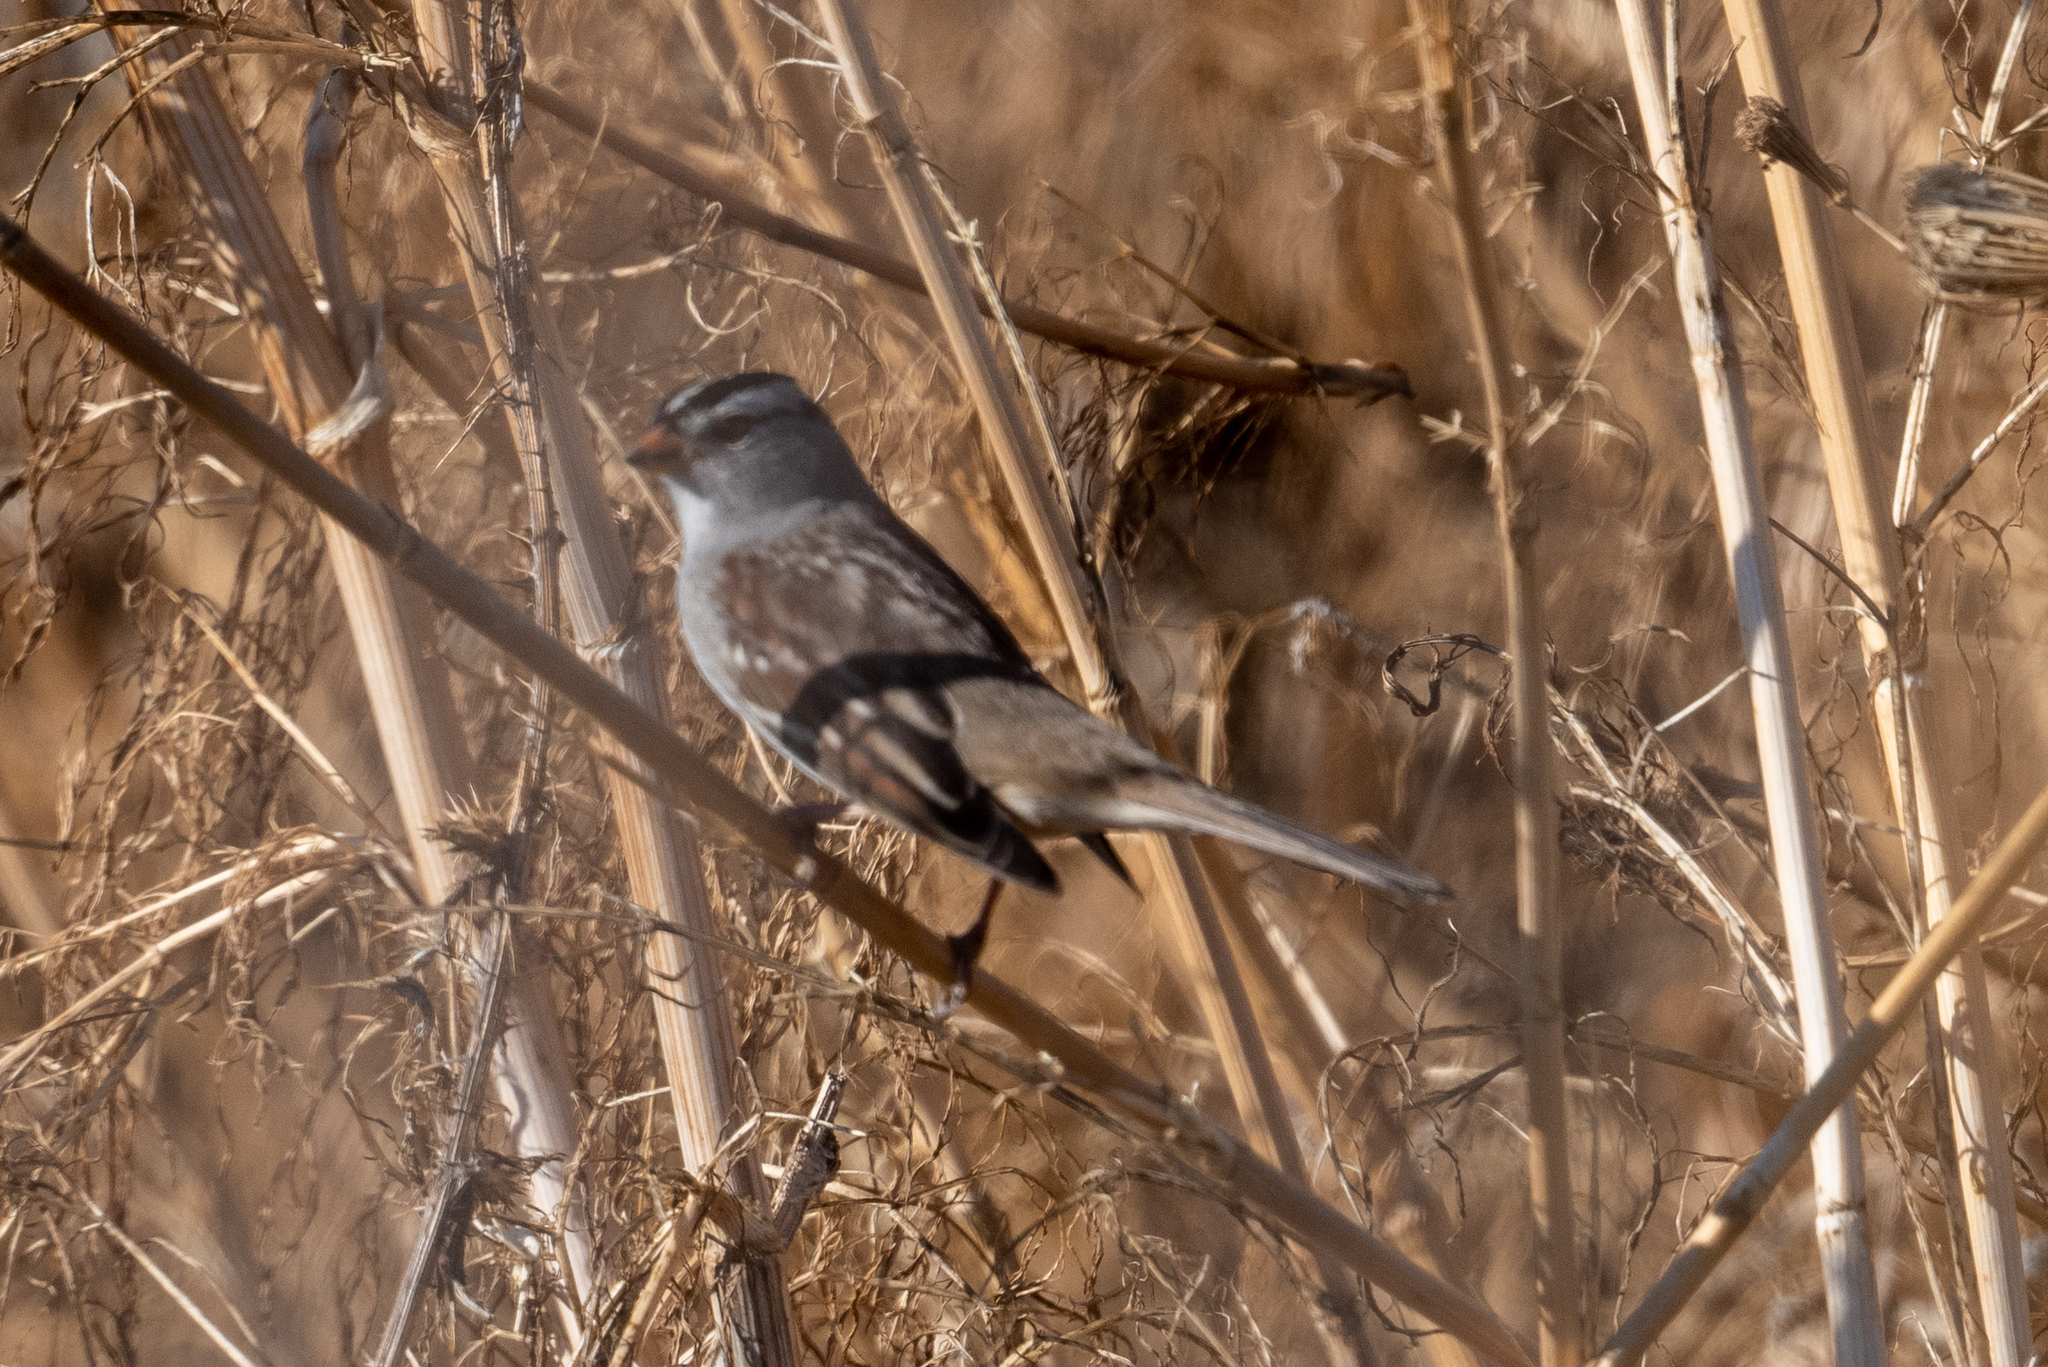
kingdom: Animalia
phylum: Chordata
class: Aves
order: Passeriformes
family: Passerellidae
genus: Zonotrichia
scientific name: Zonotrichia leucophrys
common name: White-crowned sparrow
